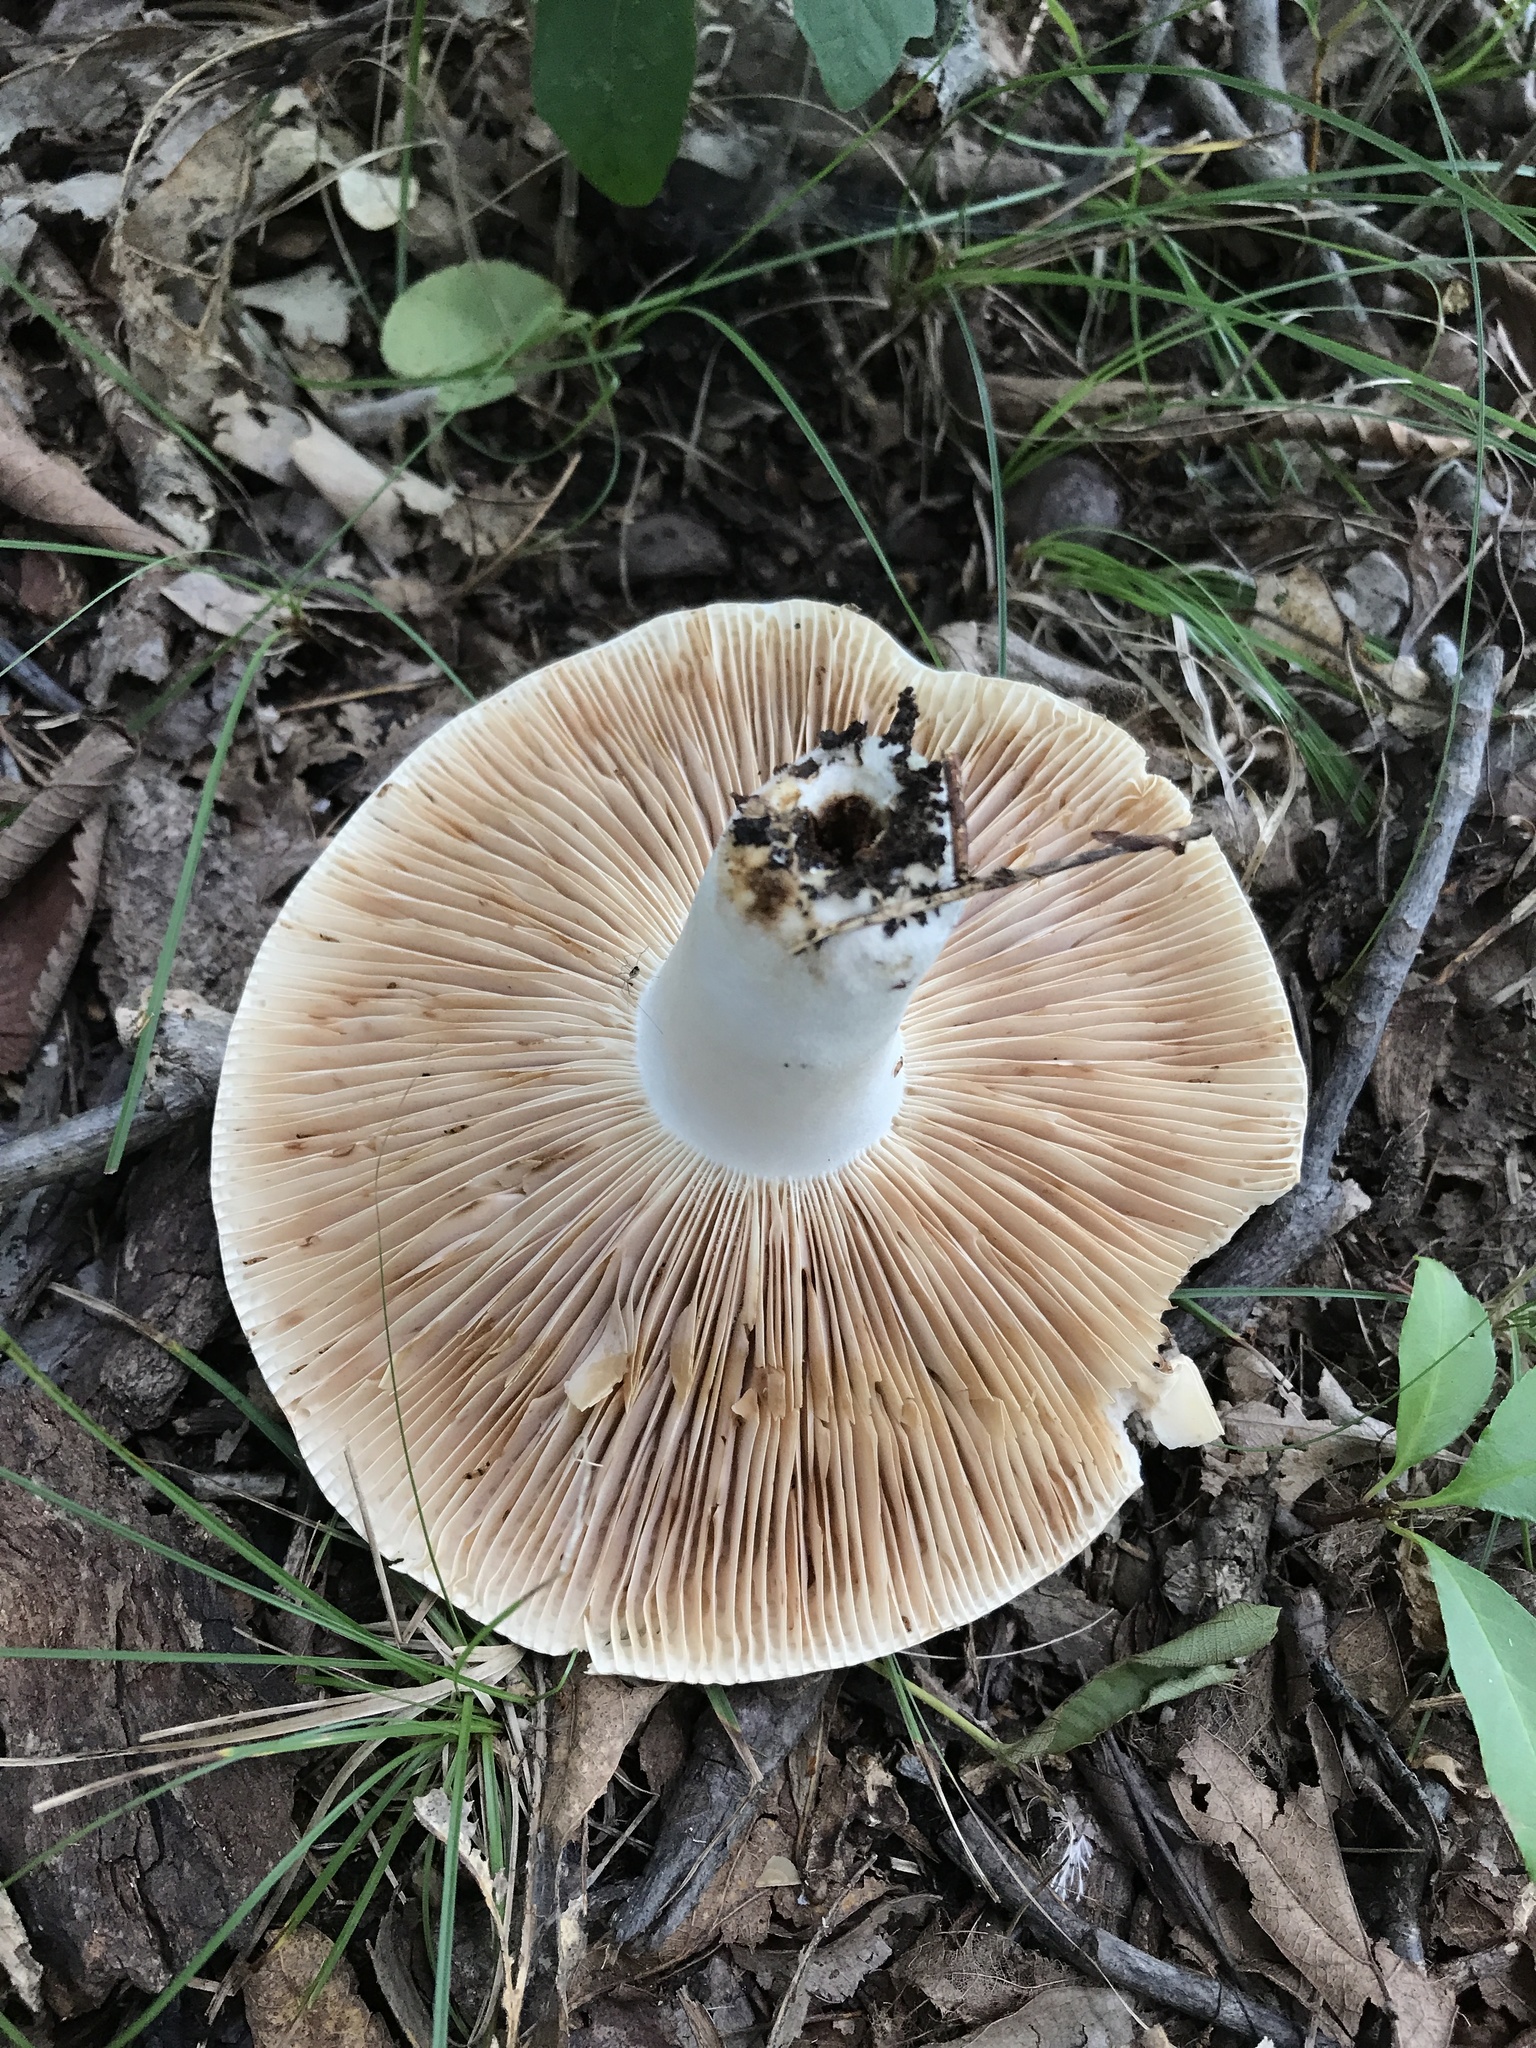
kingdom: Fungi
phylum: Basidiomycota
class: Agaricomycetes
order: Russulales
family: Russulaceae
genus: Russula
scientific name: Russula compacta
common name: Fishbiscuit russula
